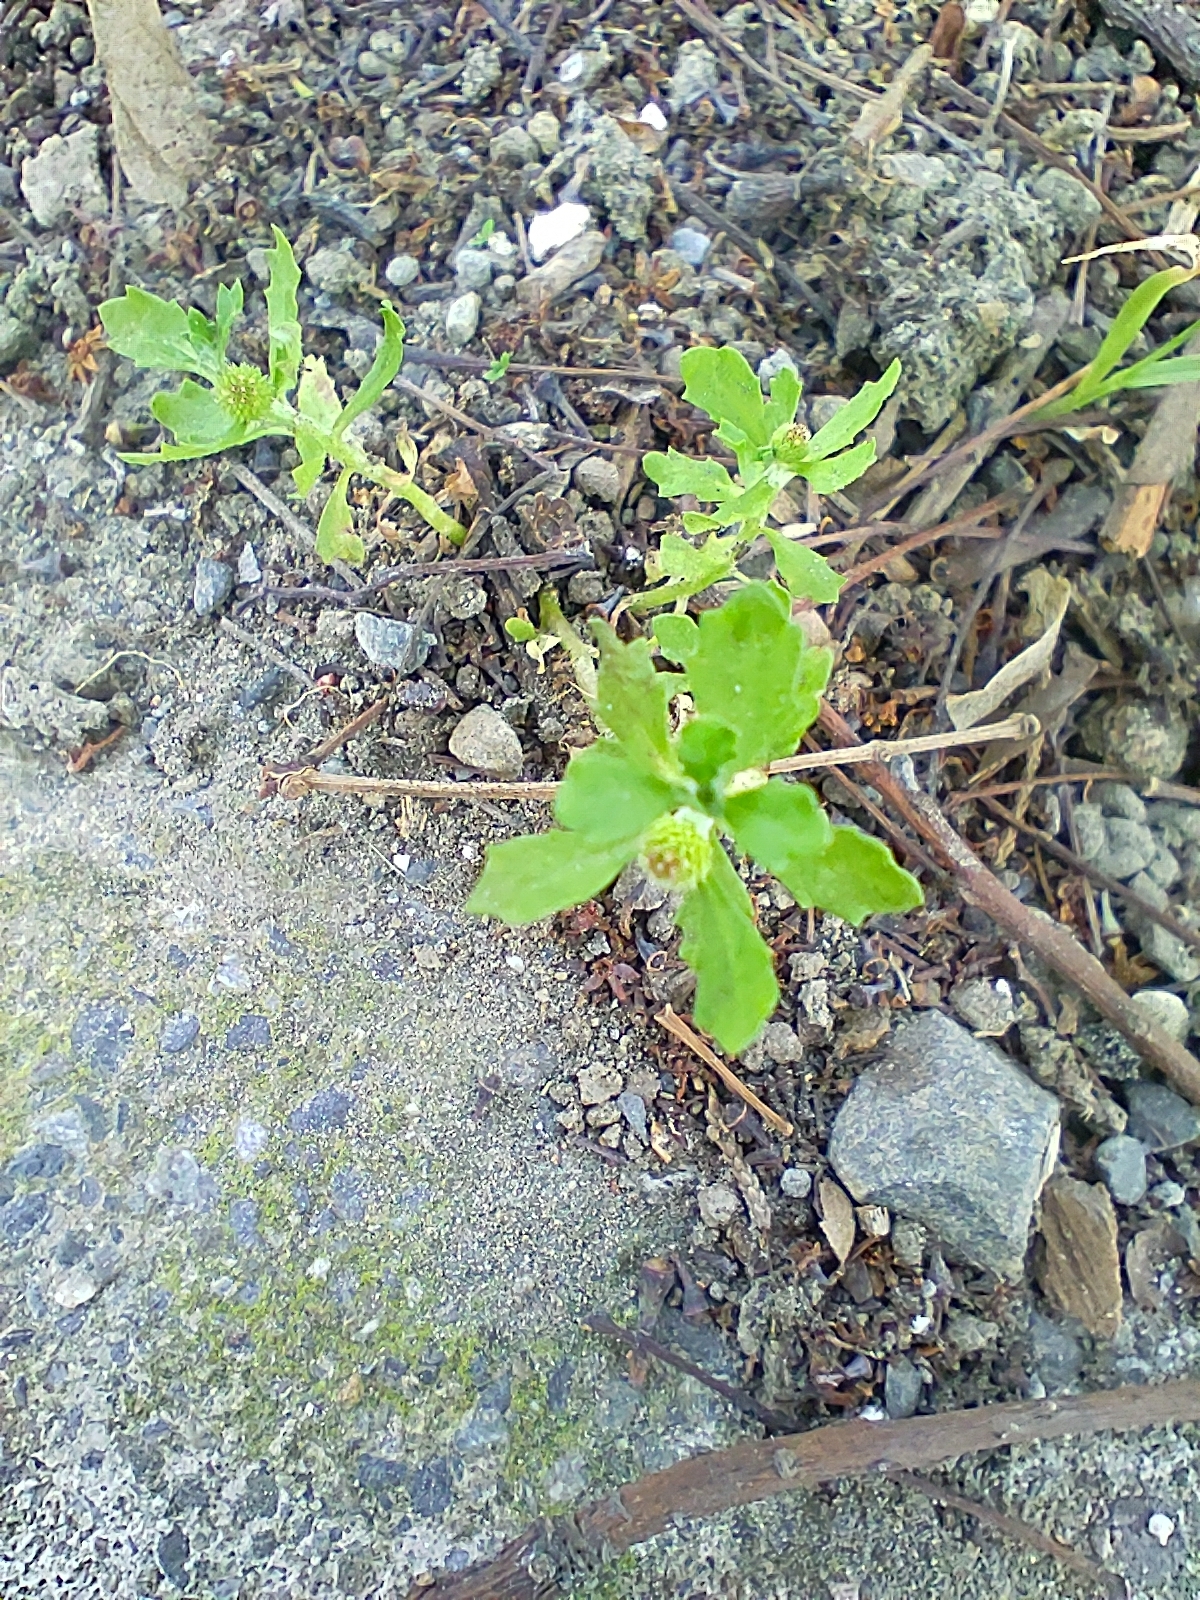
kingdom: Plantae
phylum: Tracheophyta
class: Magnoliopsida
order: Asterales
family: Asteraceae
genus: Centipeda
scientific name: Centipeda minima
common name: Spreading sneezeweed
